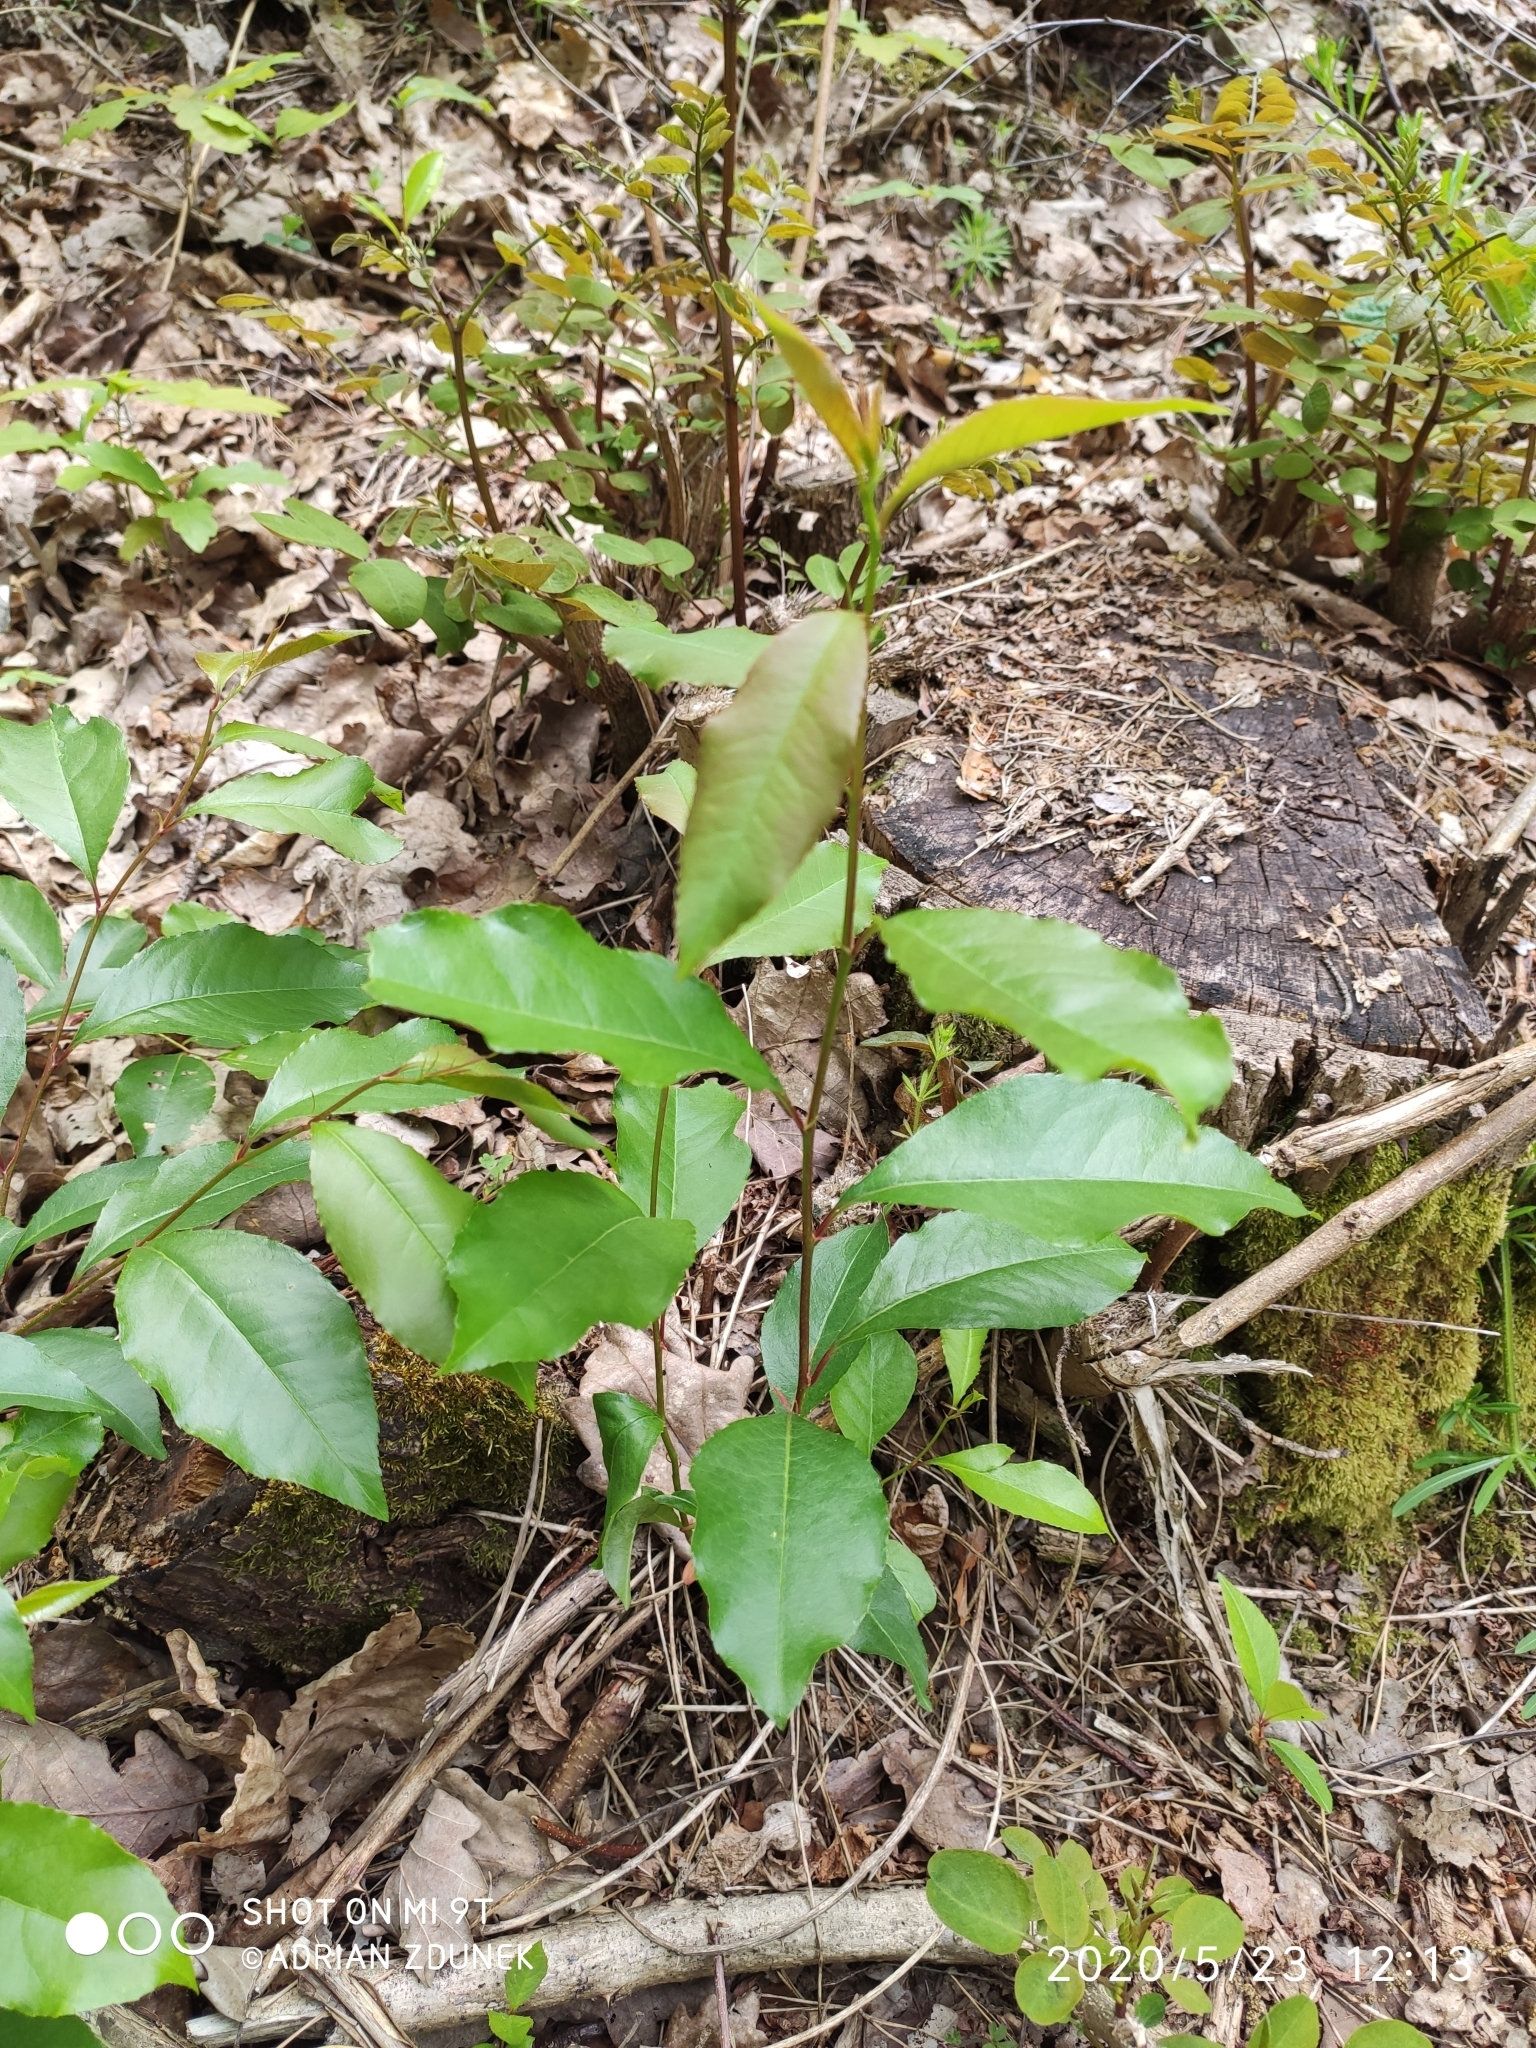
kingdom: Plantae
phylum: Tracheophyta
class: Magnoliopsida
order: Rosales
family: Rosaceae
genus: Prunus
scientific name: Prunus serotina
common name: Black cherry
